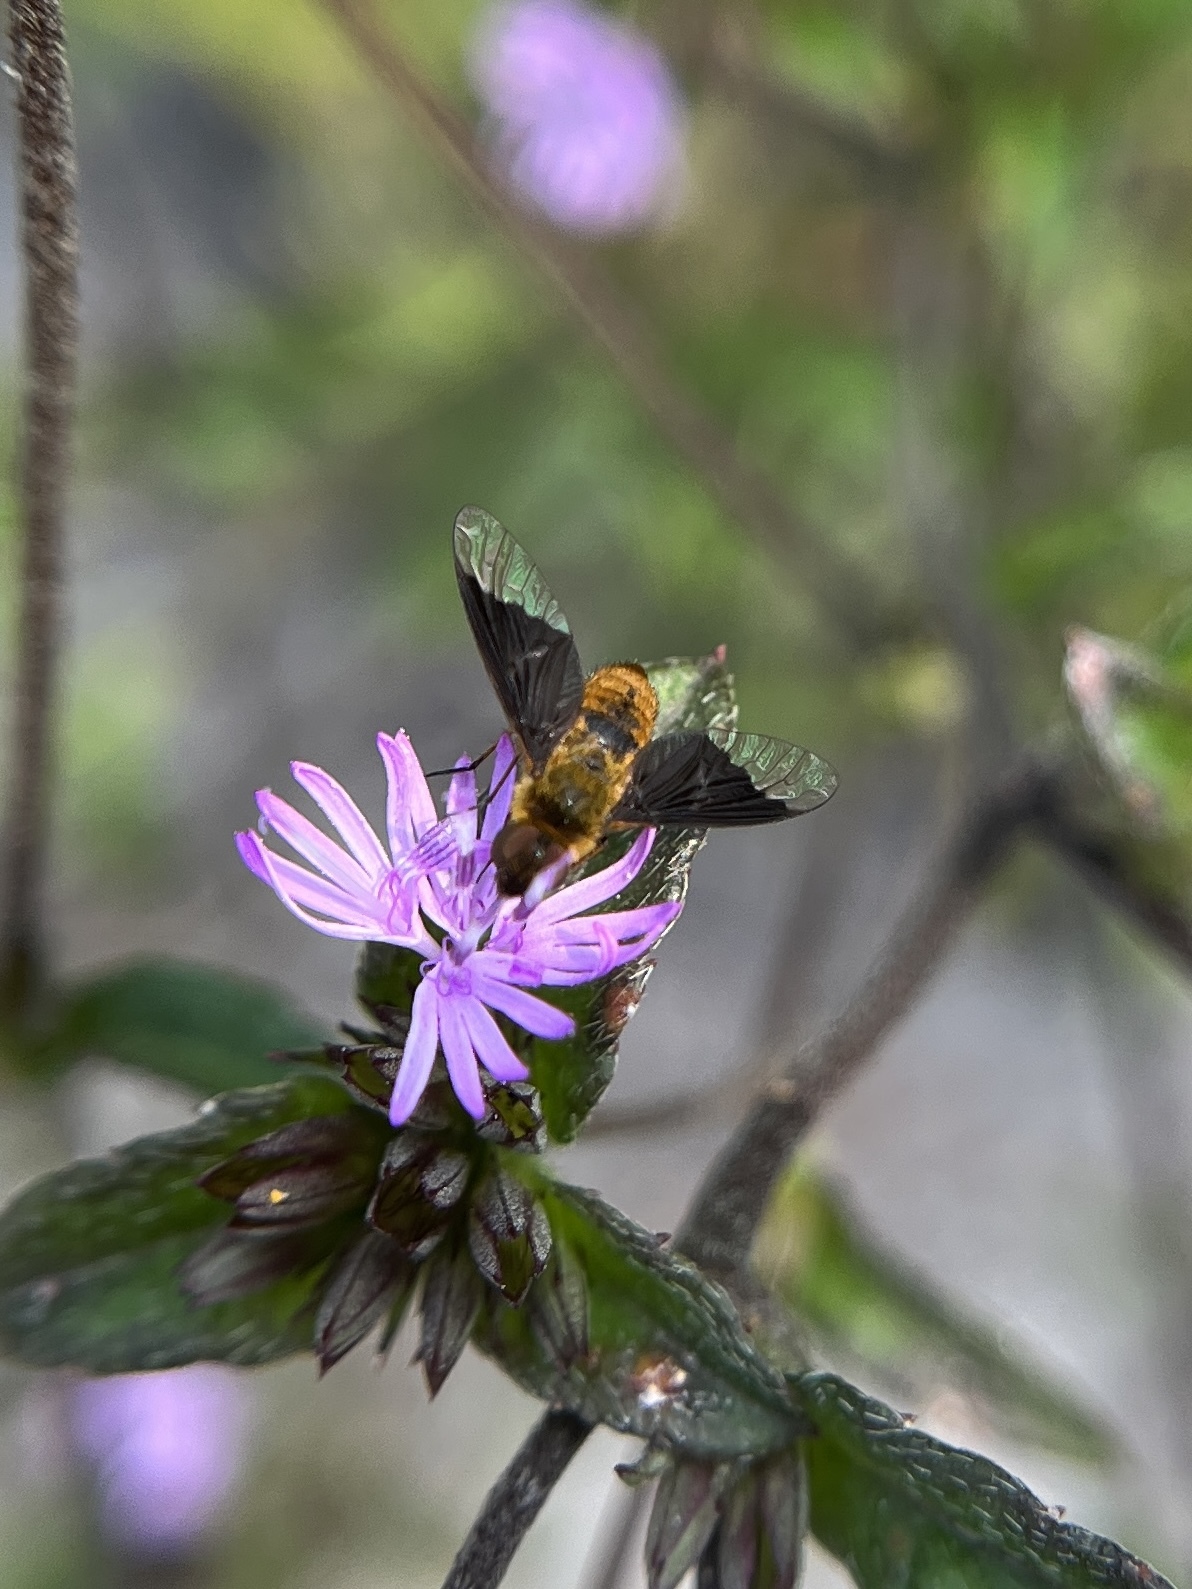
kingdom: Animalia
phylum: Arthropoda
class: Insecta
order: Diptera
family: Bombyliidae
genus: Chrysanthrax
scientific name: Chrysanthrax cypris
